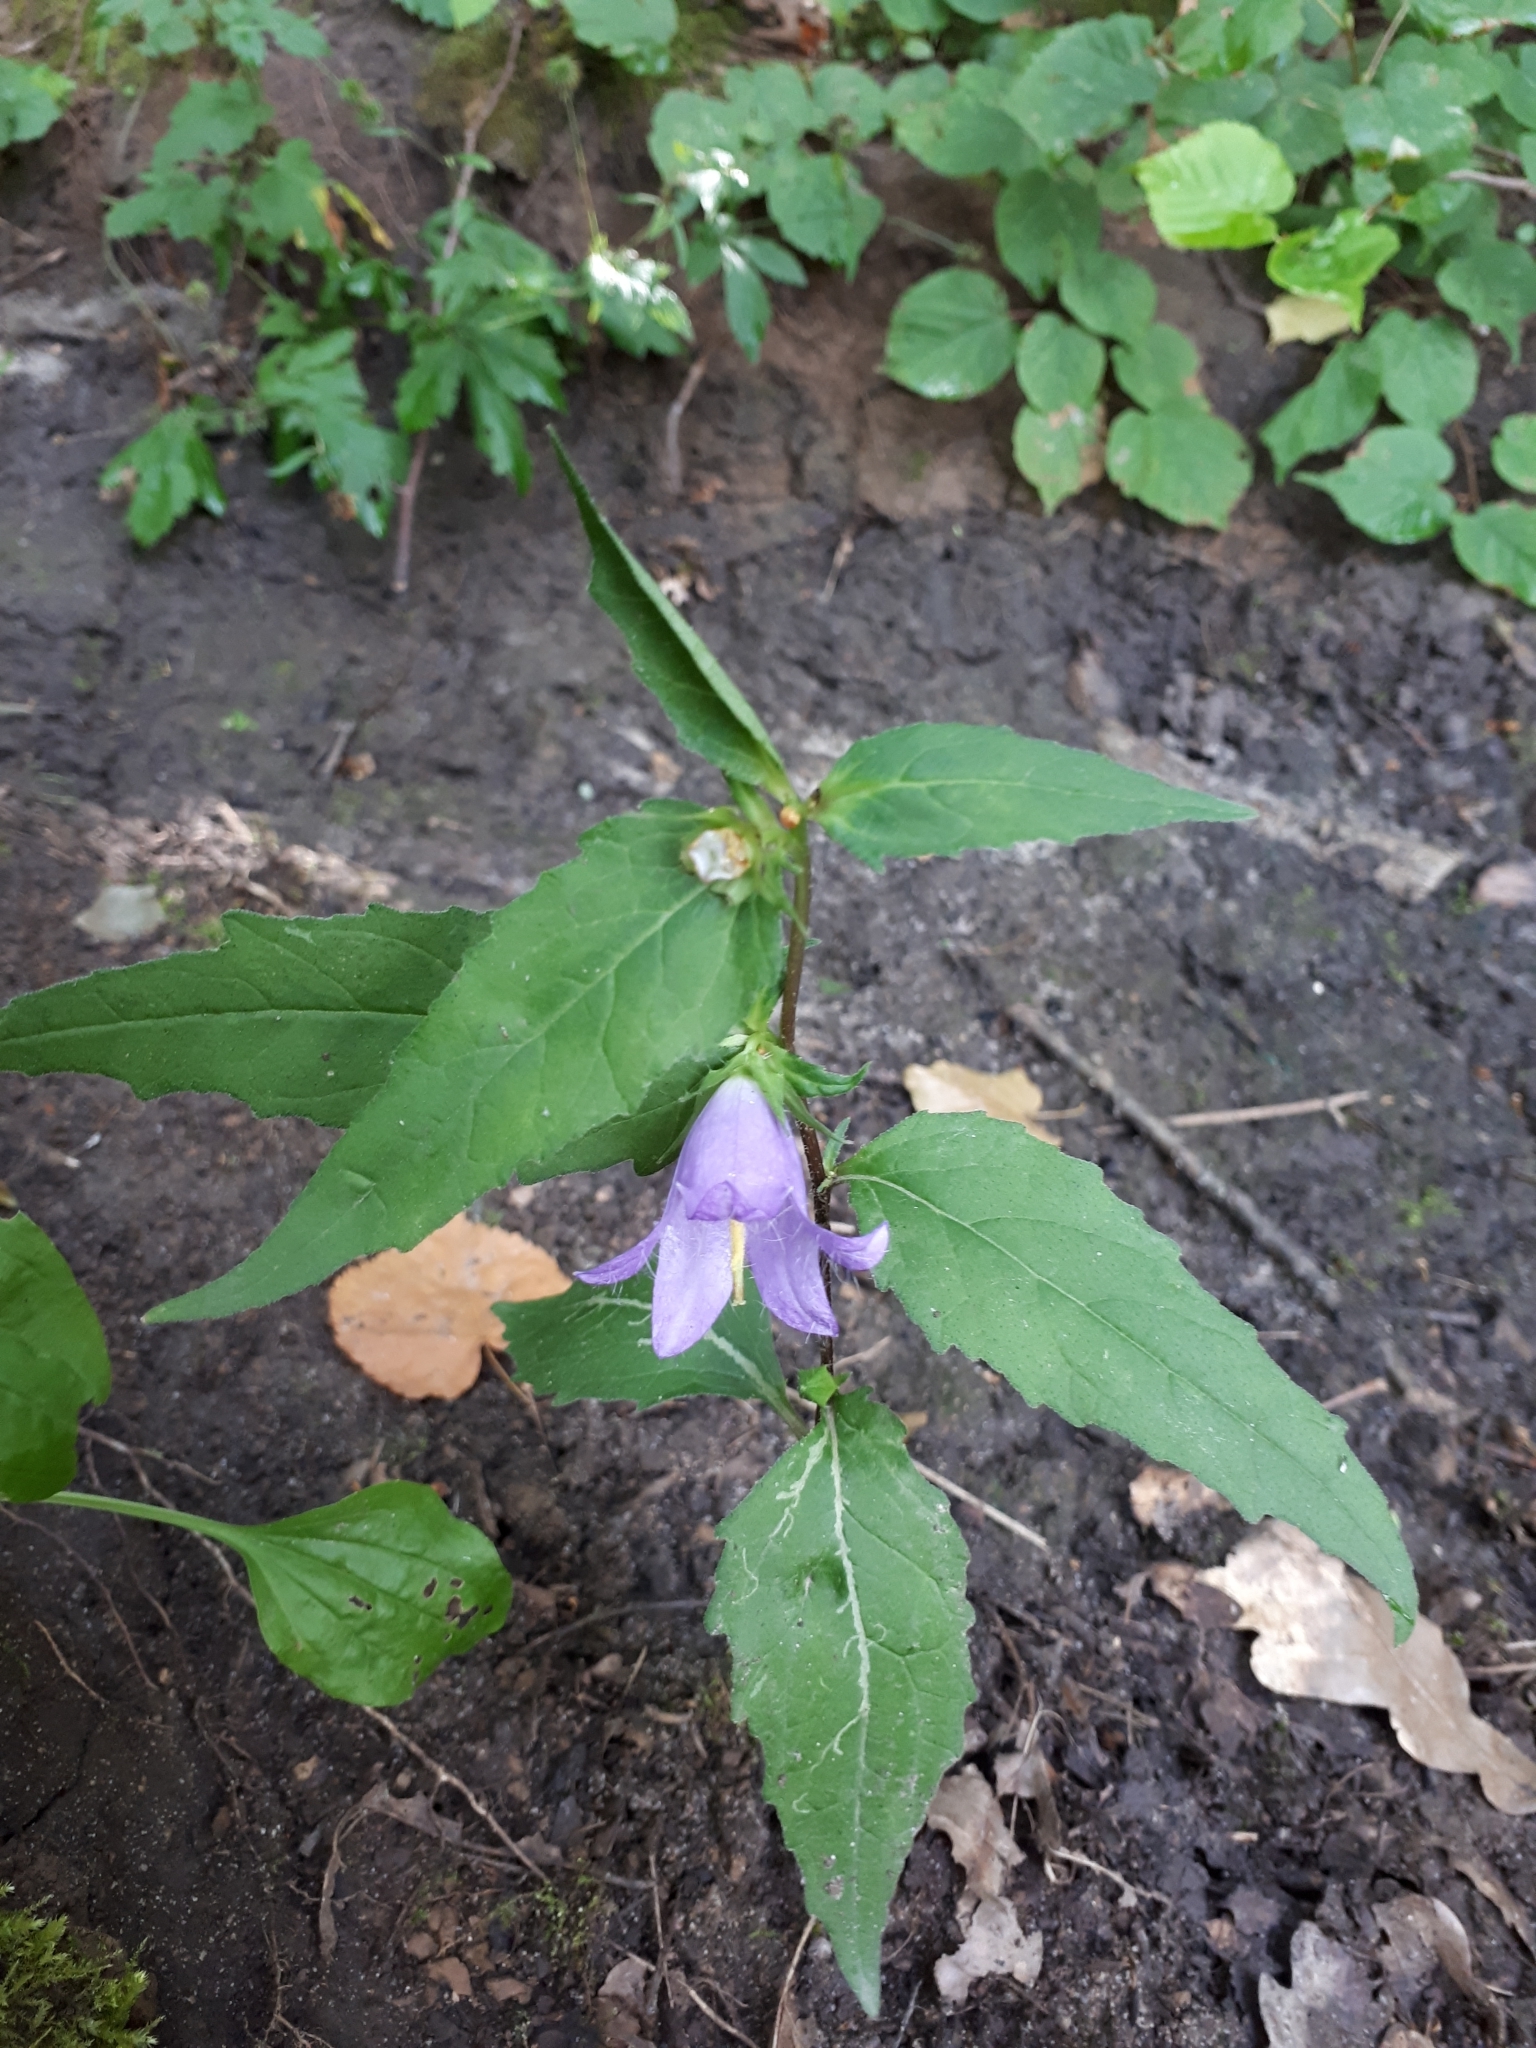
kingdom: Plantae
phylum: Tracheophyta
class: Magnoliopsida
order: Asterales
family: Campanulaceae
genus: Campanula
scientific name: Campanula trachelium
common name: Nettle-leaved bellflower
